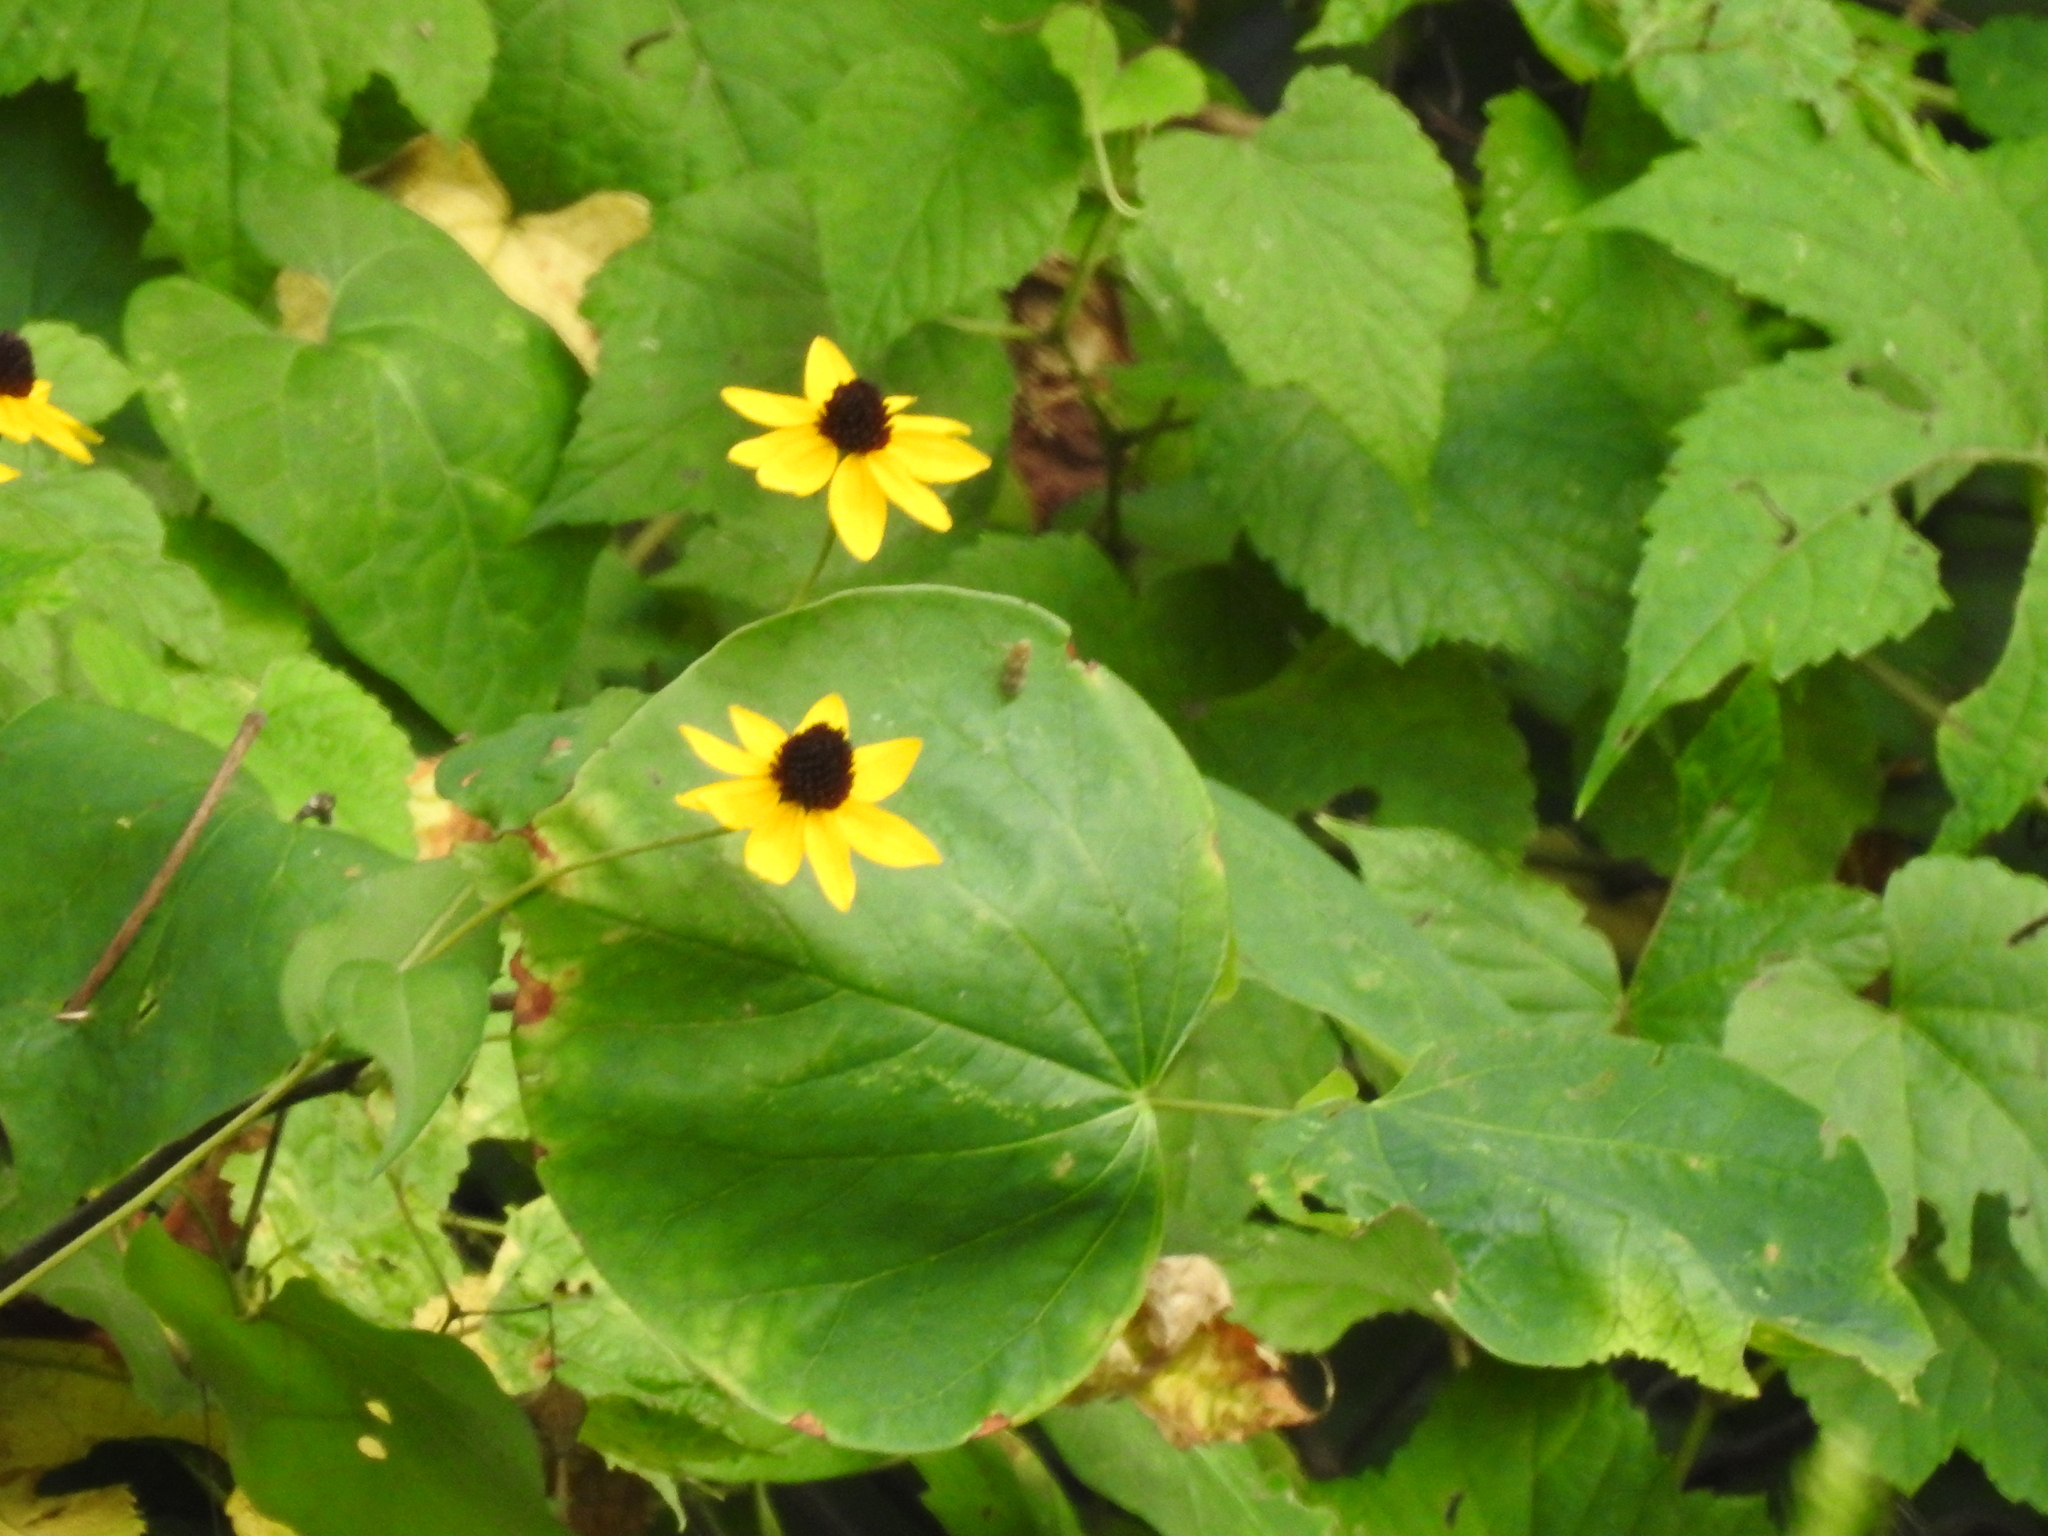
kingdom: Animalia
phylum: Arthropoda
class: Insecta
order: Hemiptera
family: Cicadellidae
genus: Jikradia
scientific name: Jikradia olitoria
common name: Coppery leafhopper
